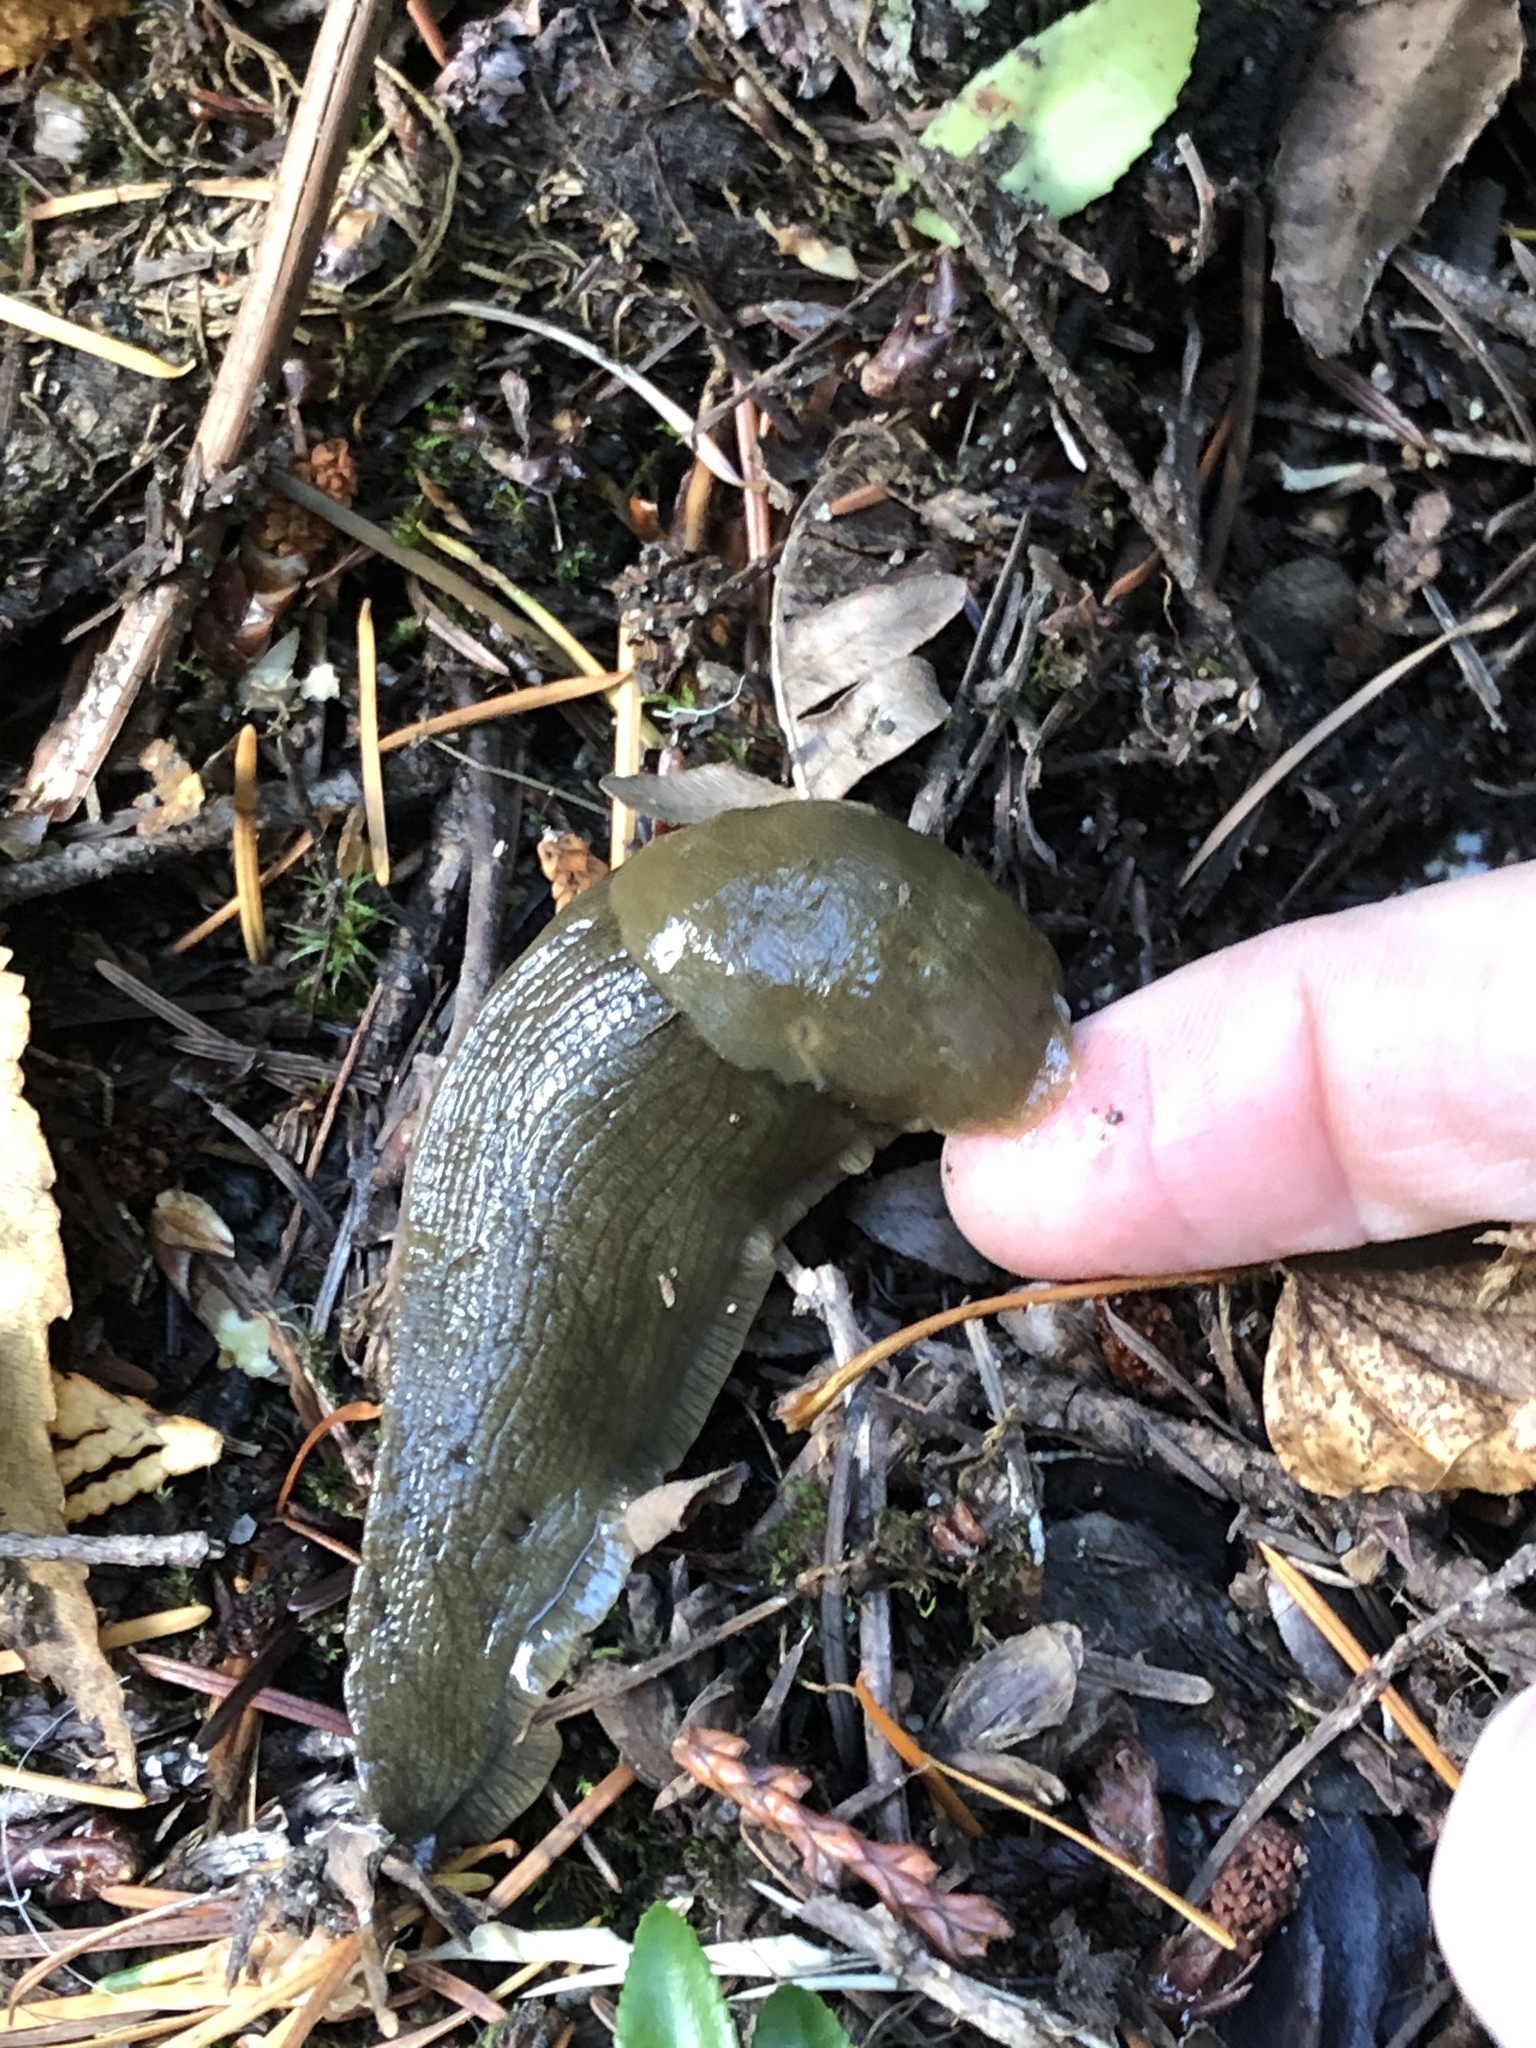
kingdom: Animalia
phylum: Mollusca
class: Gastropoda
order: Stylommatophora
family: Ariolimacidae
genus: Ariolimax
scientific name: Ariolimax columbianus
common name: Pacific banana slug
